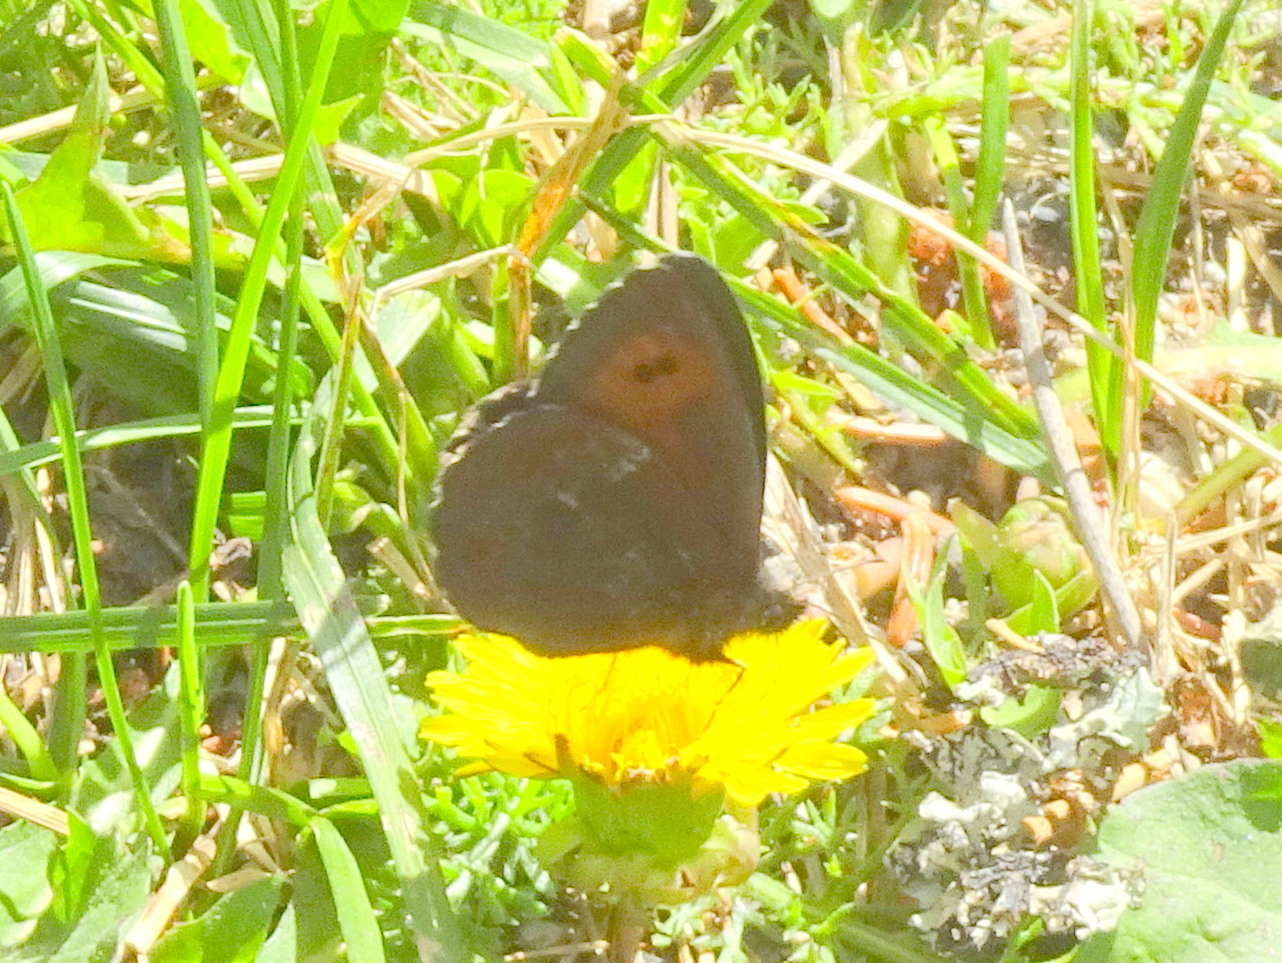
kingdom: Animalia
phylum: Arthropoda
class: Insecta
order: Lepidoptera
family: Nymphalidae
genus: Erebia
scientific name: Erebia euryale
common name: Large ringlet
